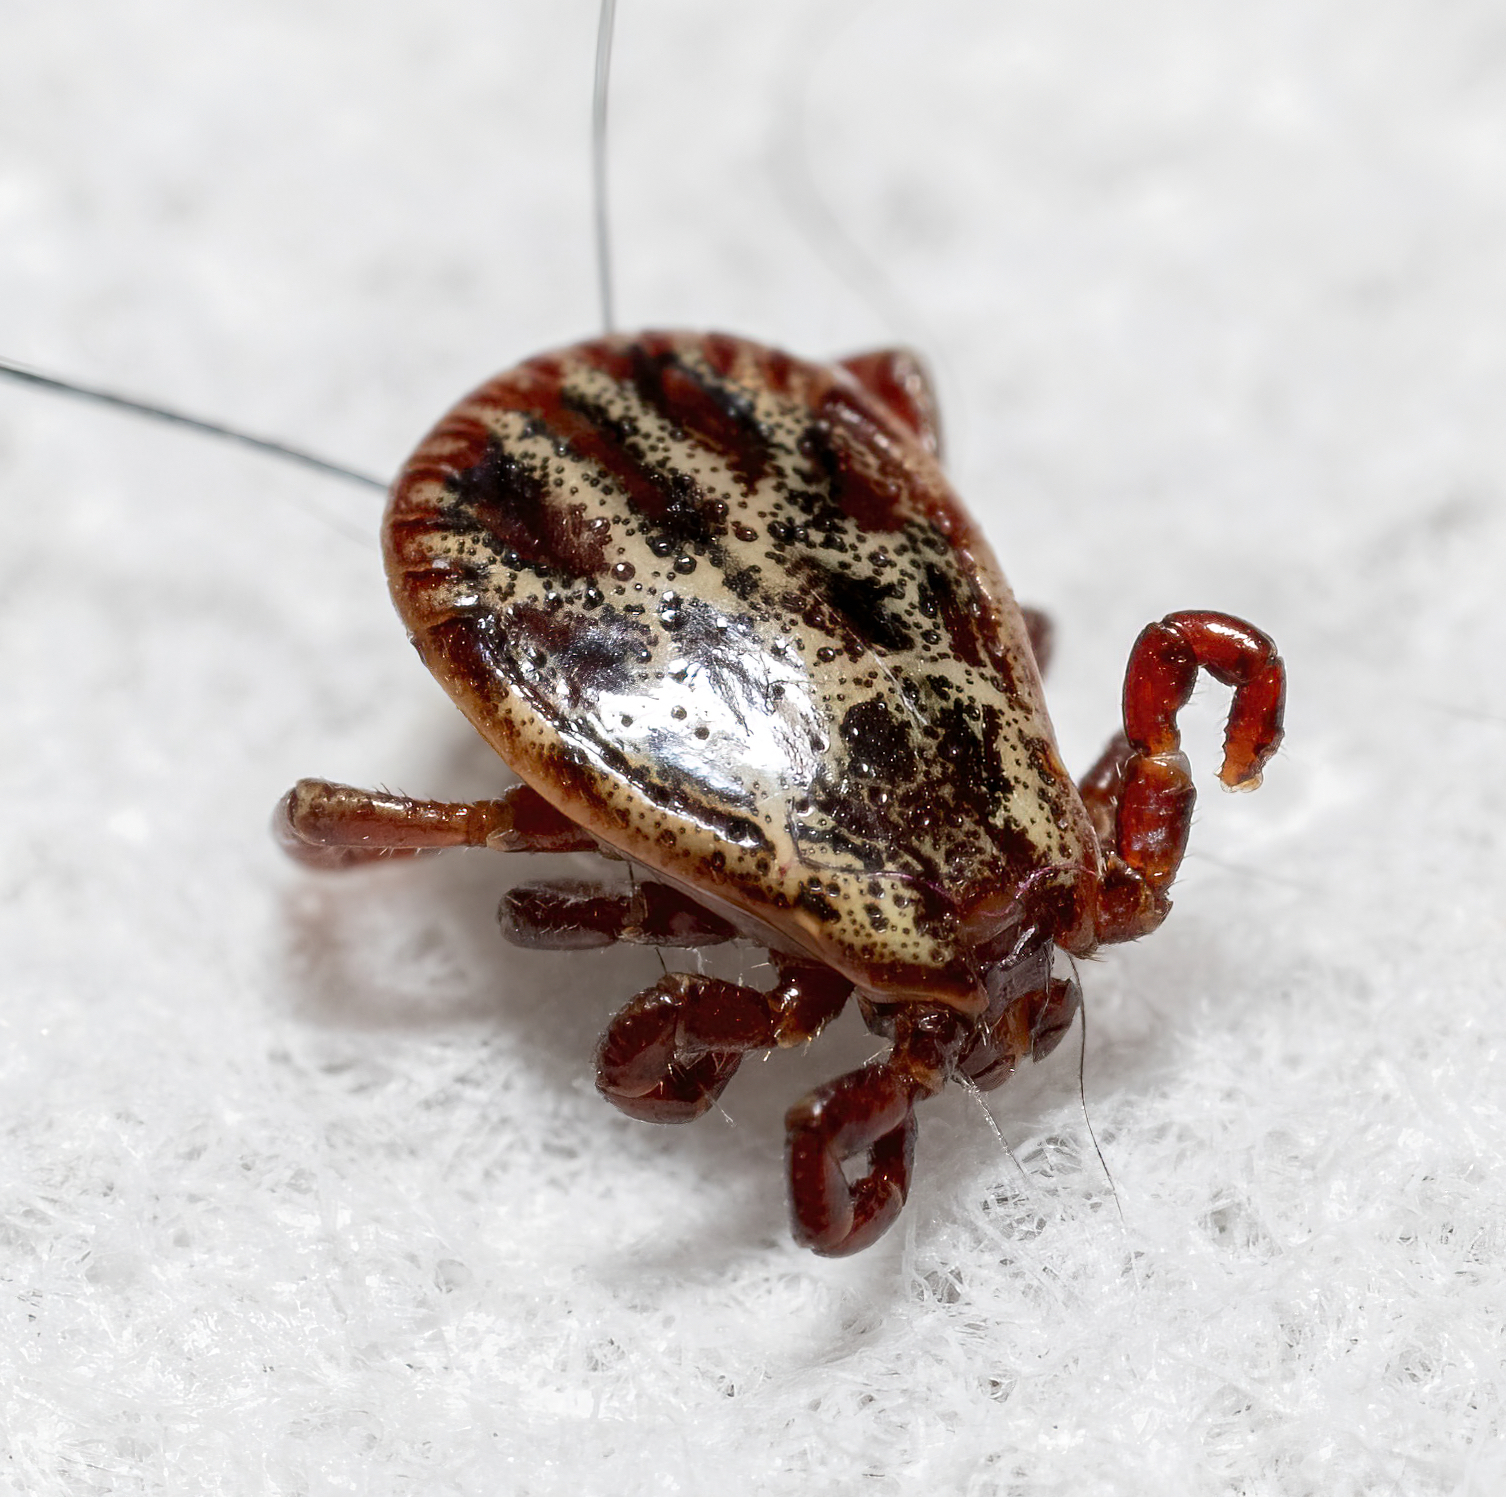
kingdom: Animalia
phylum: Arthropoda
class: Arachnida
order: Ixodida
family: Ixodidae
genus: Dermacentor
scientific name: Dermacentor reticulatus
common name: Ornate cow tick
